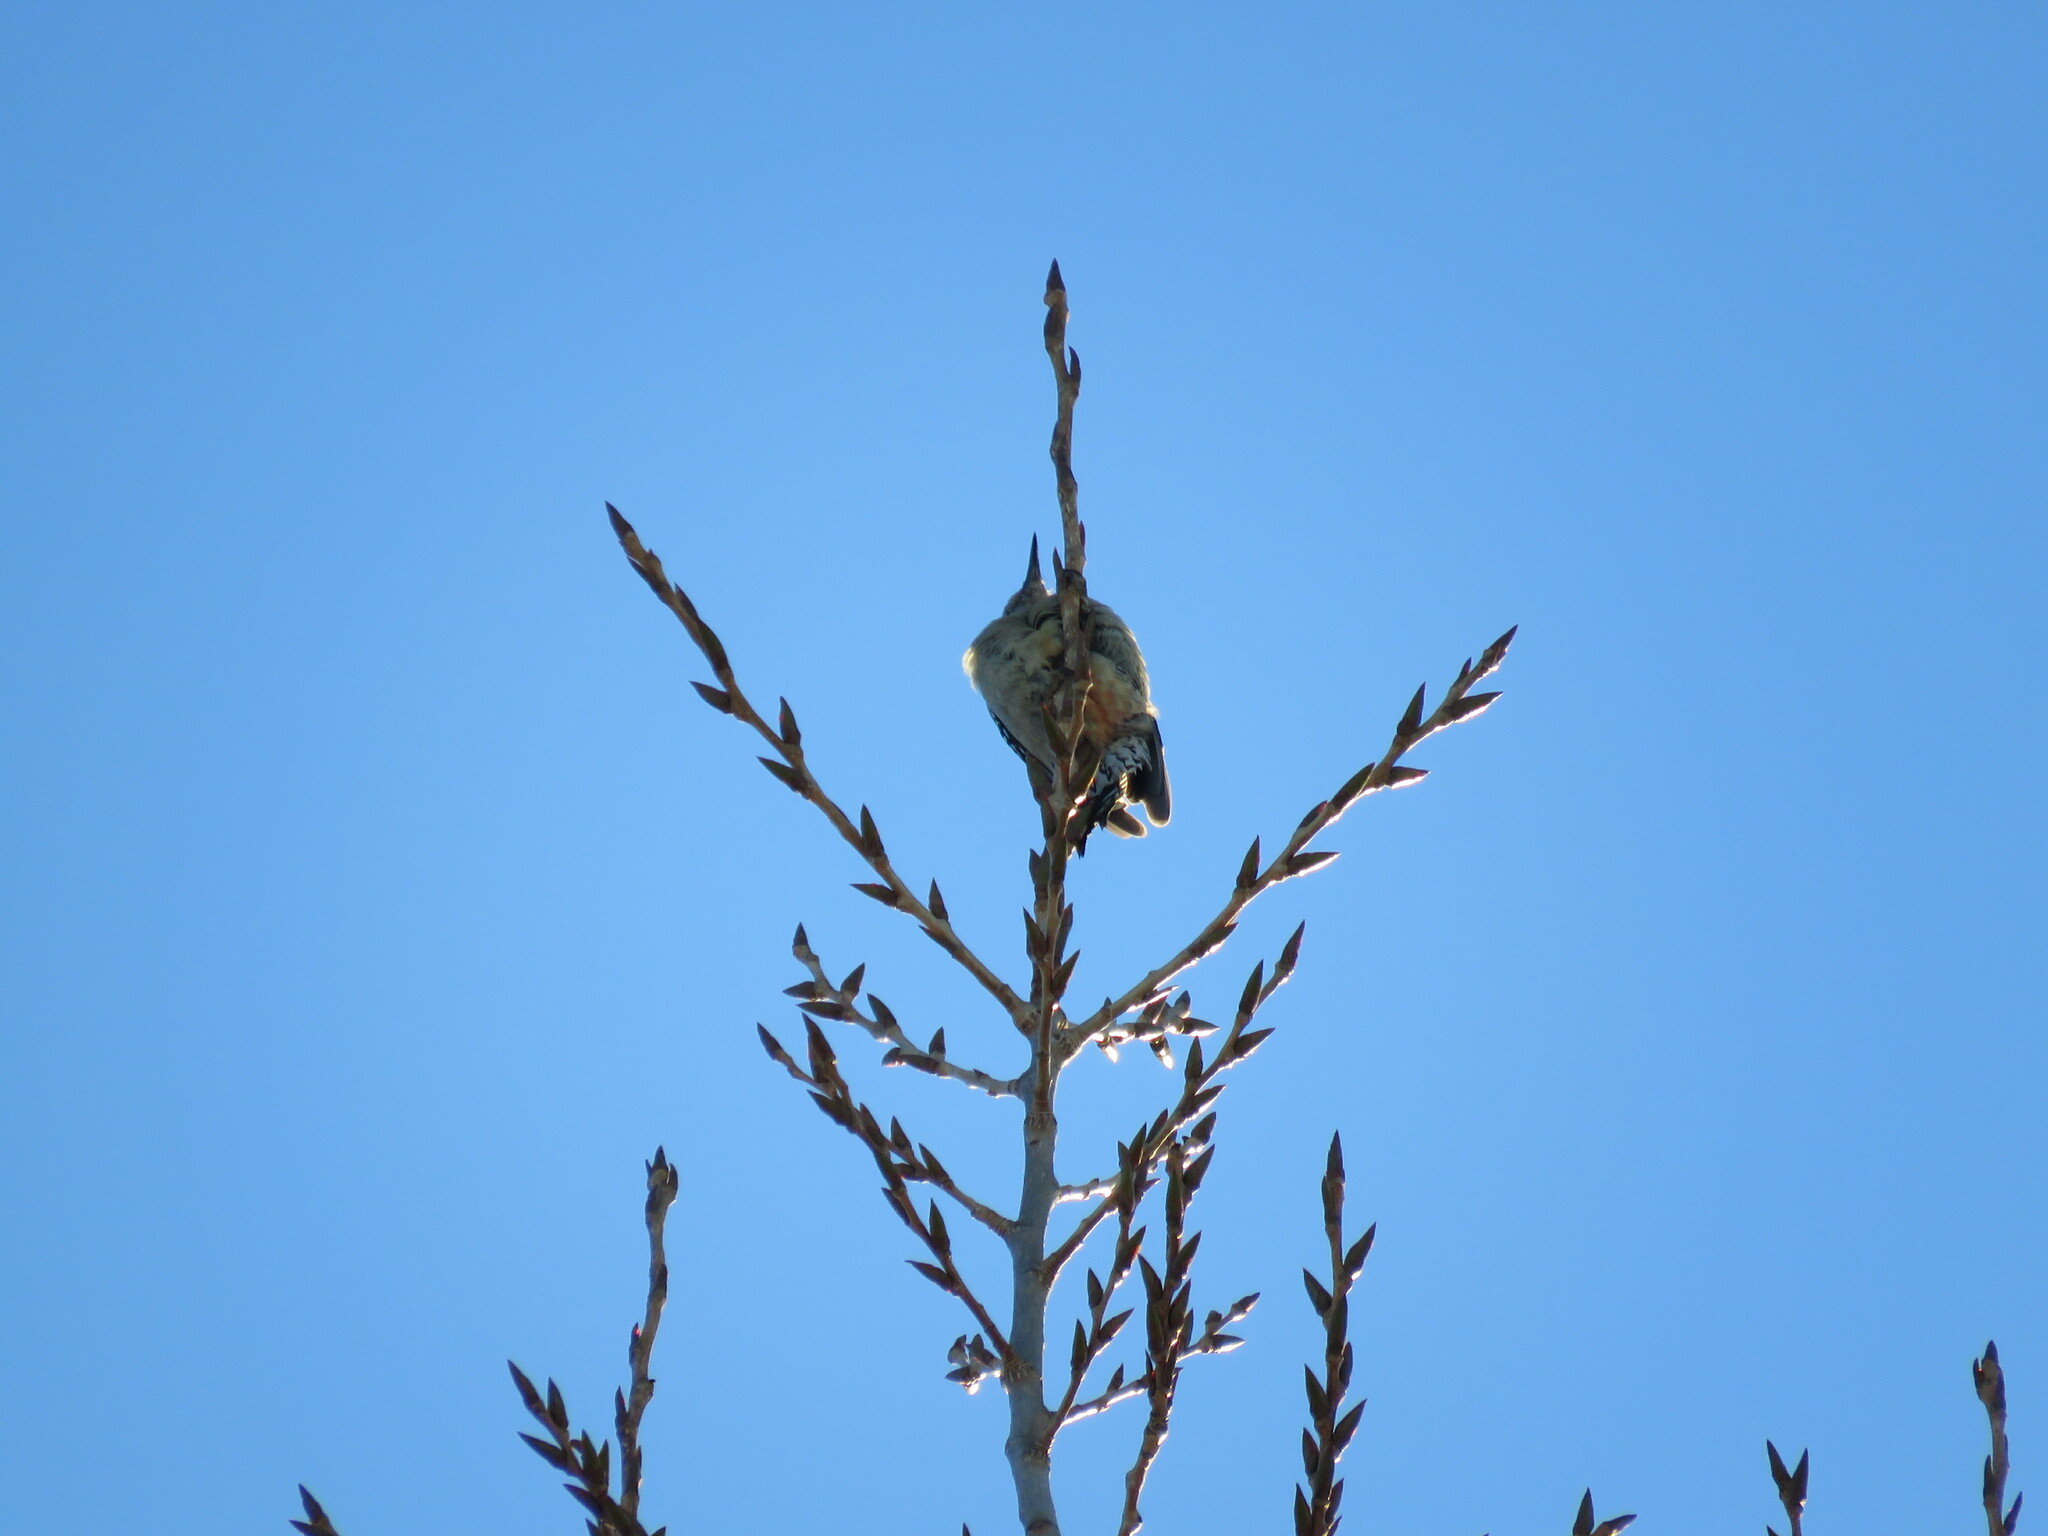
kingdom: Animalia
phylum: Chordata
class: Aves
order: Piciformes
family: Picidae
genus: Melanerpes
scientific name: Melanerpes carolinus
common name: Red-bellied woodpecker
